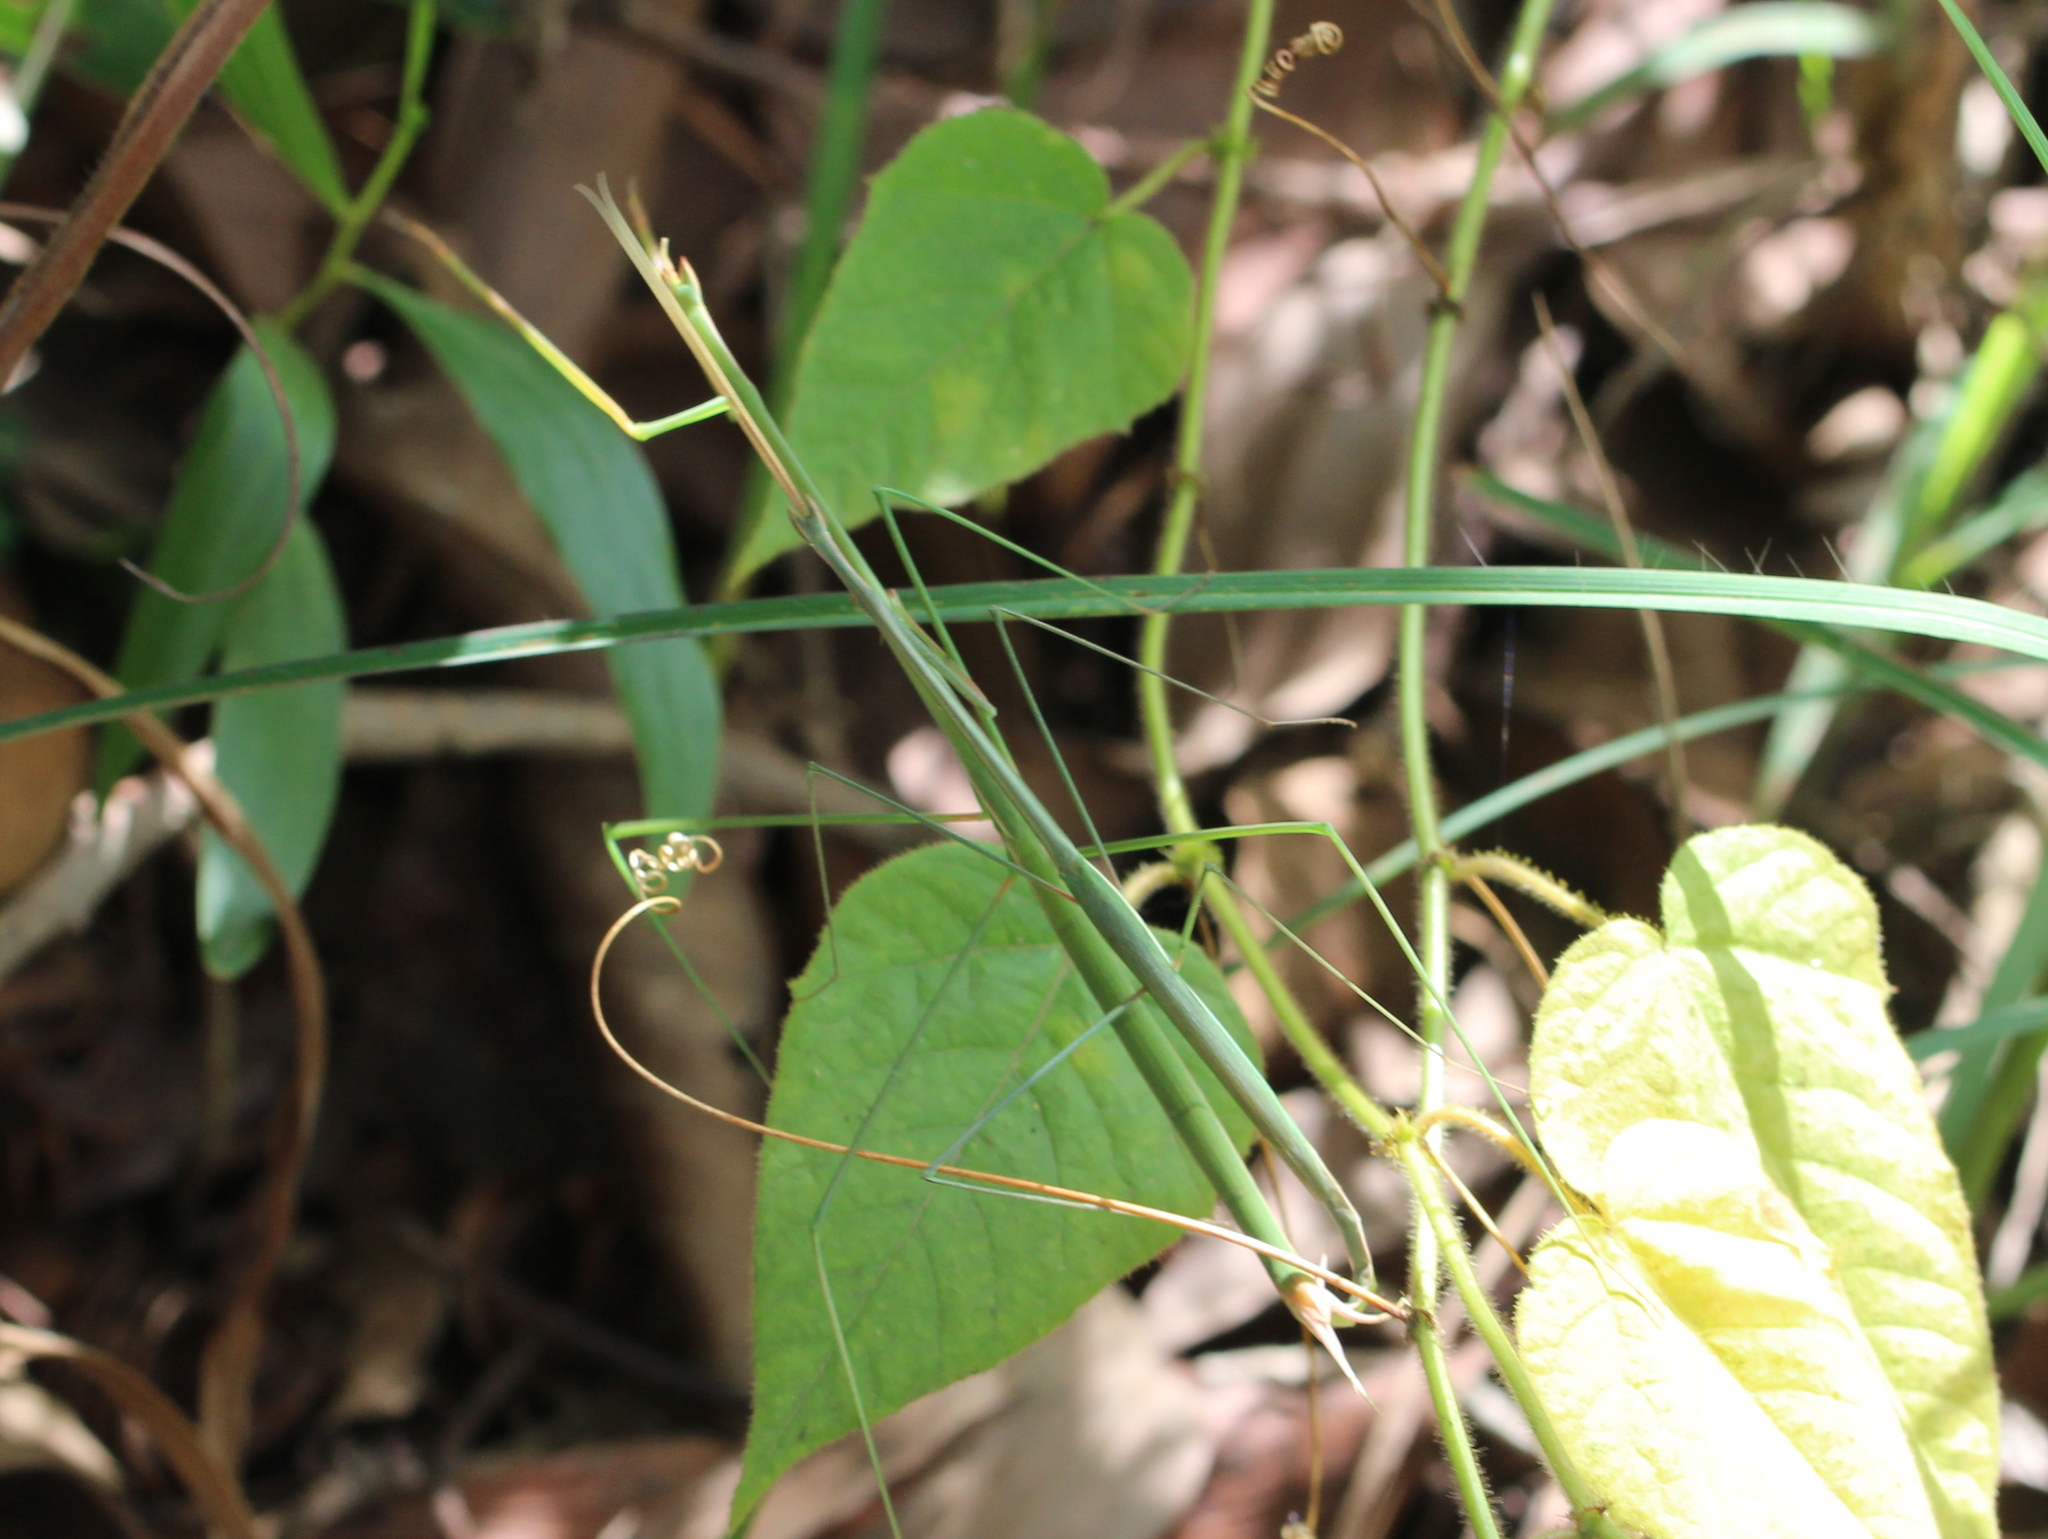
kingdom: Animalia
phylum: Arthropoda
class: Insecta
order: Mantodea
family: Eremiaphilidae
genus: Schizocephala
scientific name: Schizocephala bicornis
